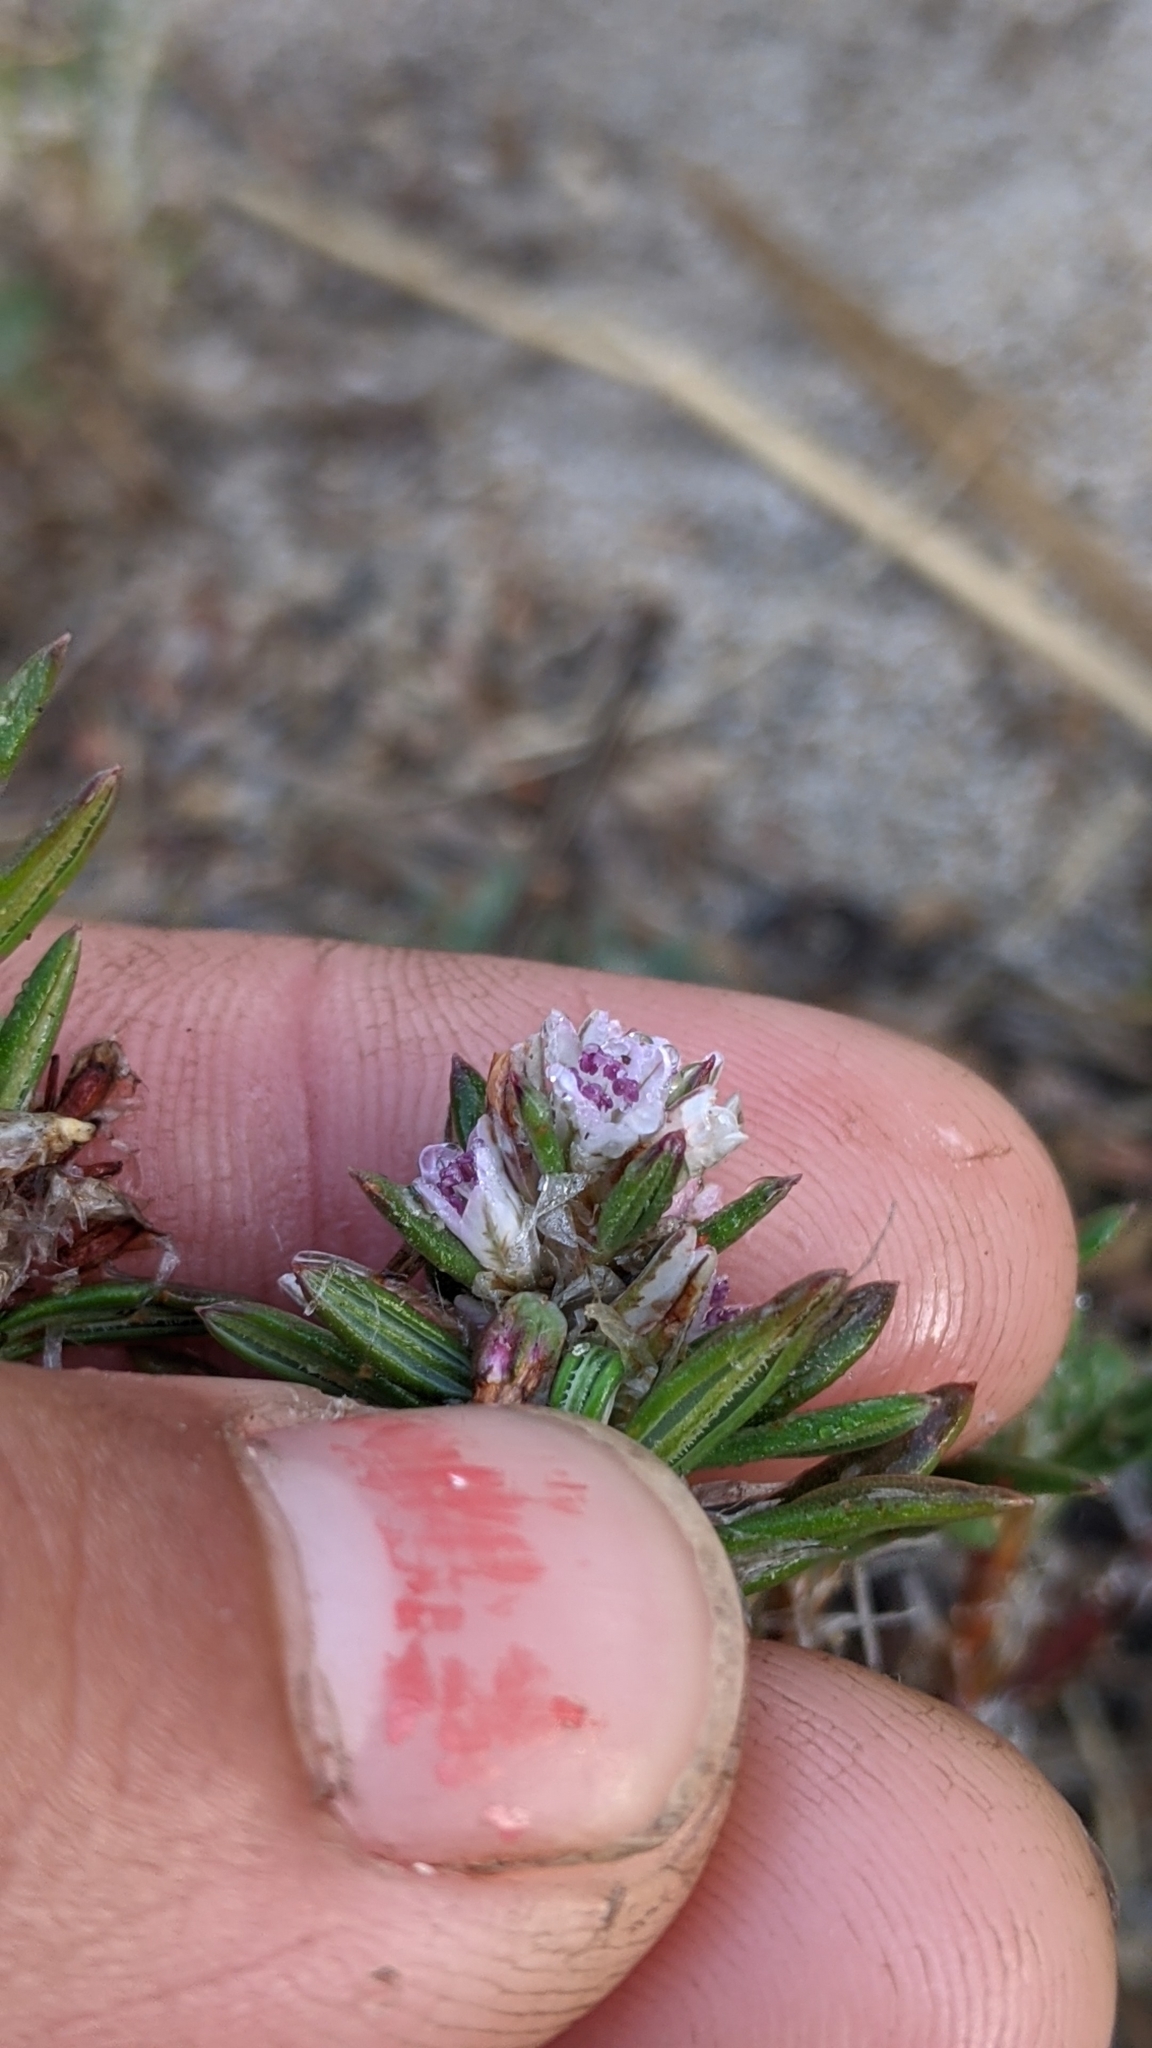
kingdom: Plantae
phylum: Tracheophyta
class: Magnoliopsida
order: Caryophyllales
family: Polygonaceae
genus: Polygonum
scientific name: Polygonum paronychia
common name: Dune knotweed
